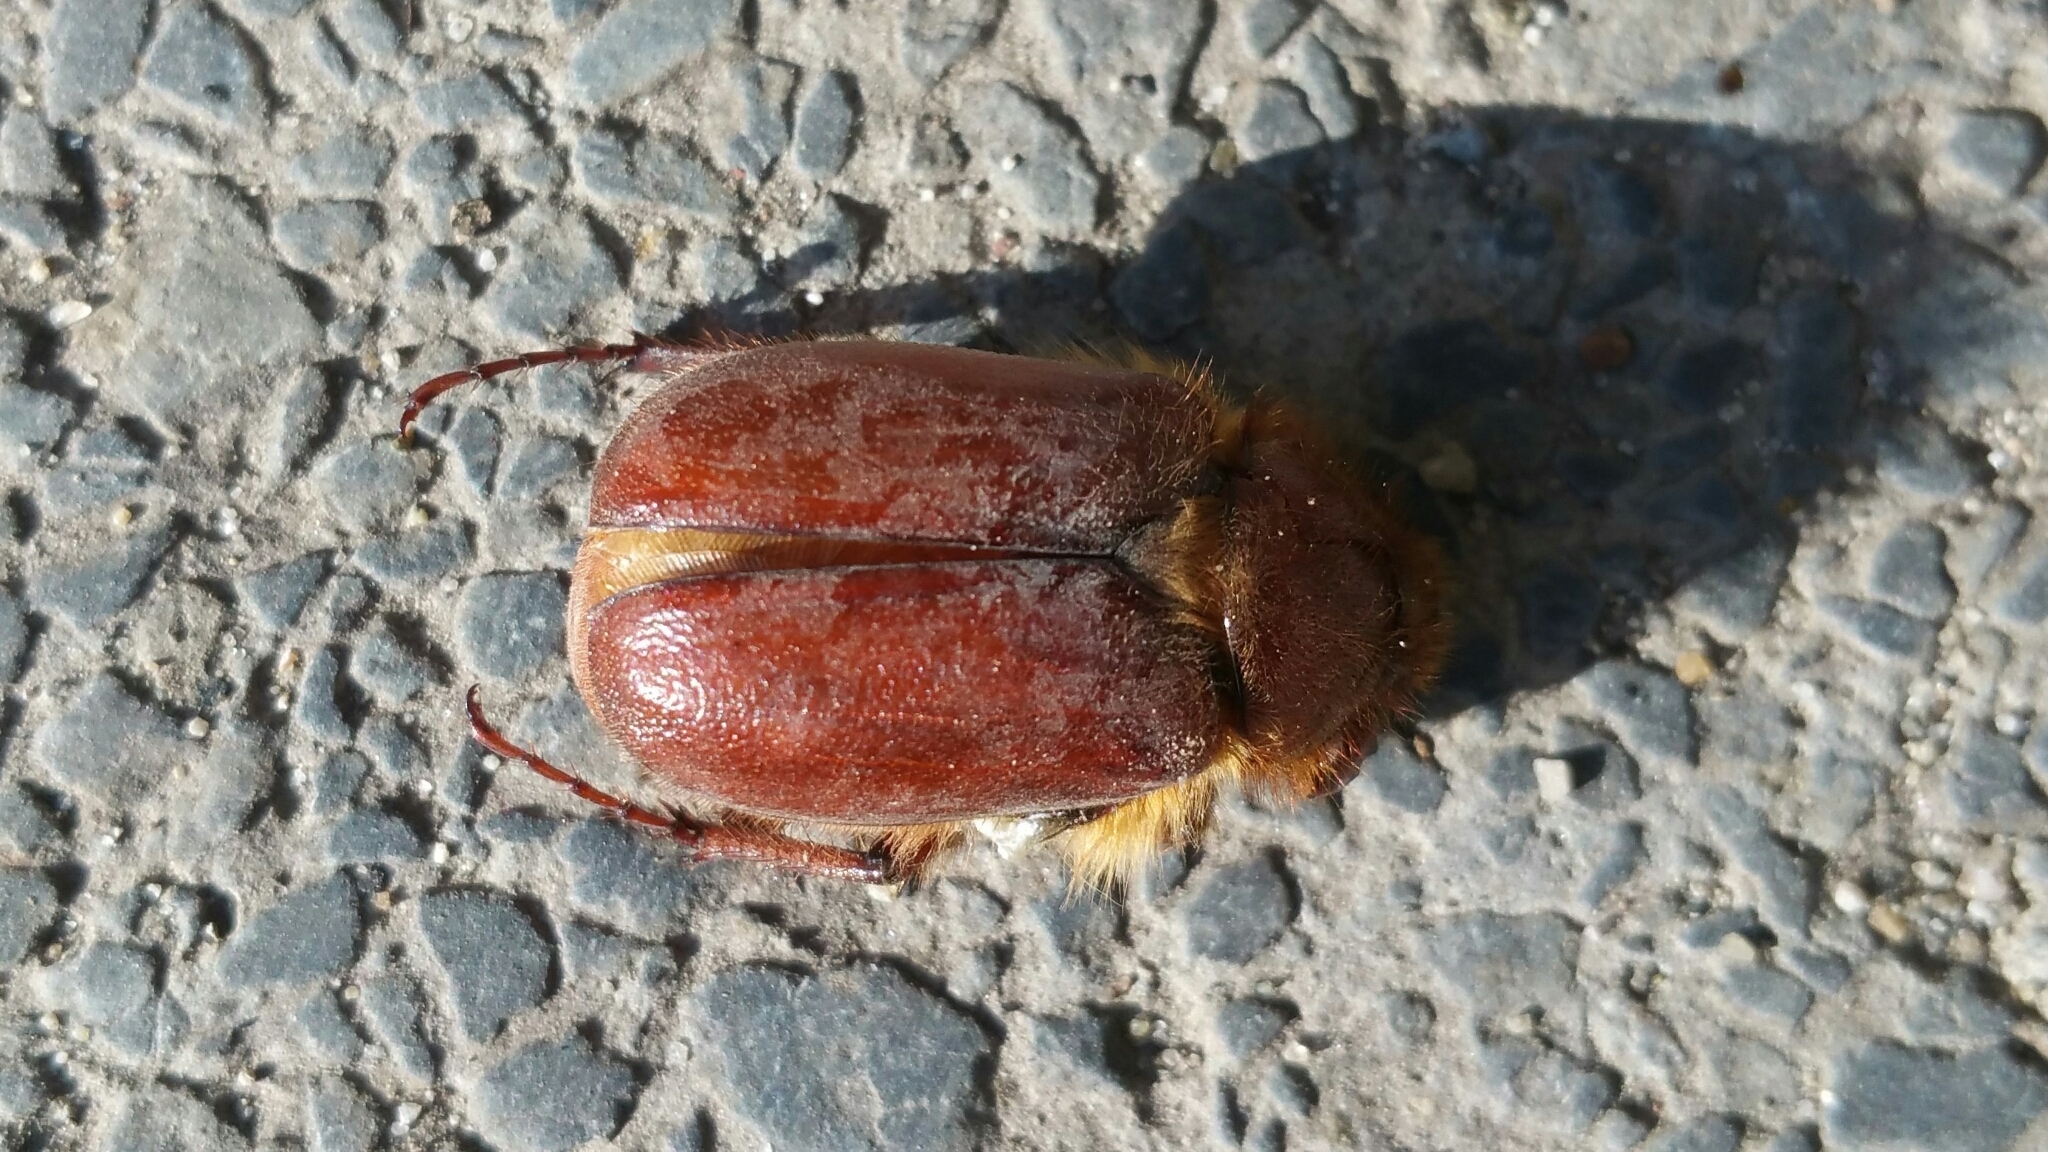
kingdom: Animalia
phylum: Arthropoda
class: Insecta
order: Coleoptera
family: Scarabaeidae
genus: Holochelus
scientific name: Holochelus aequinoctialis
